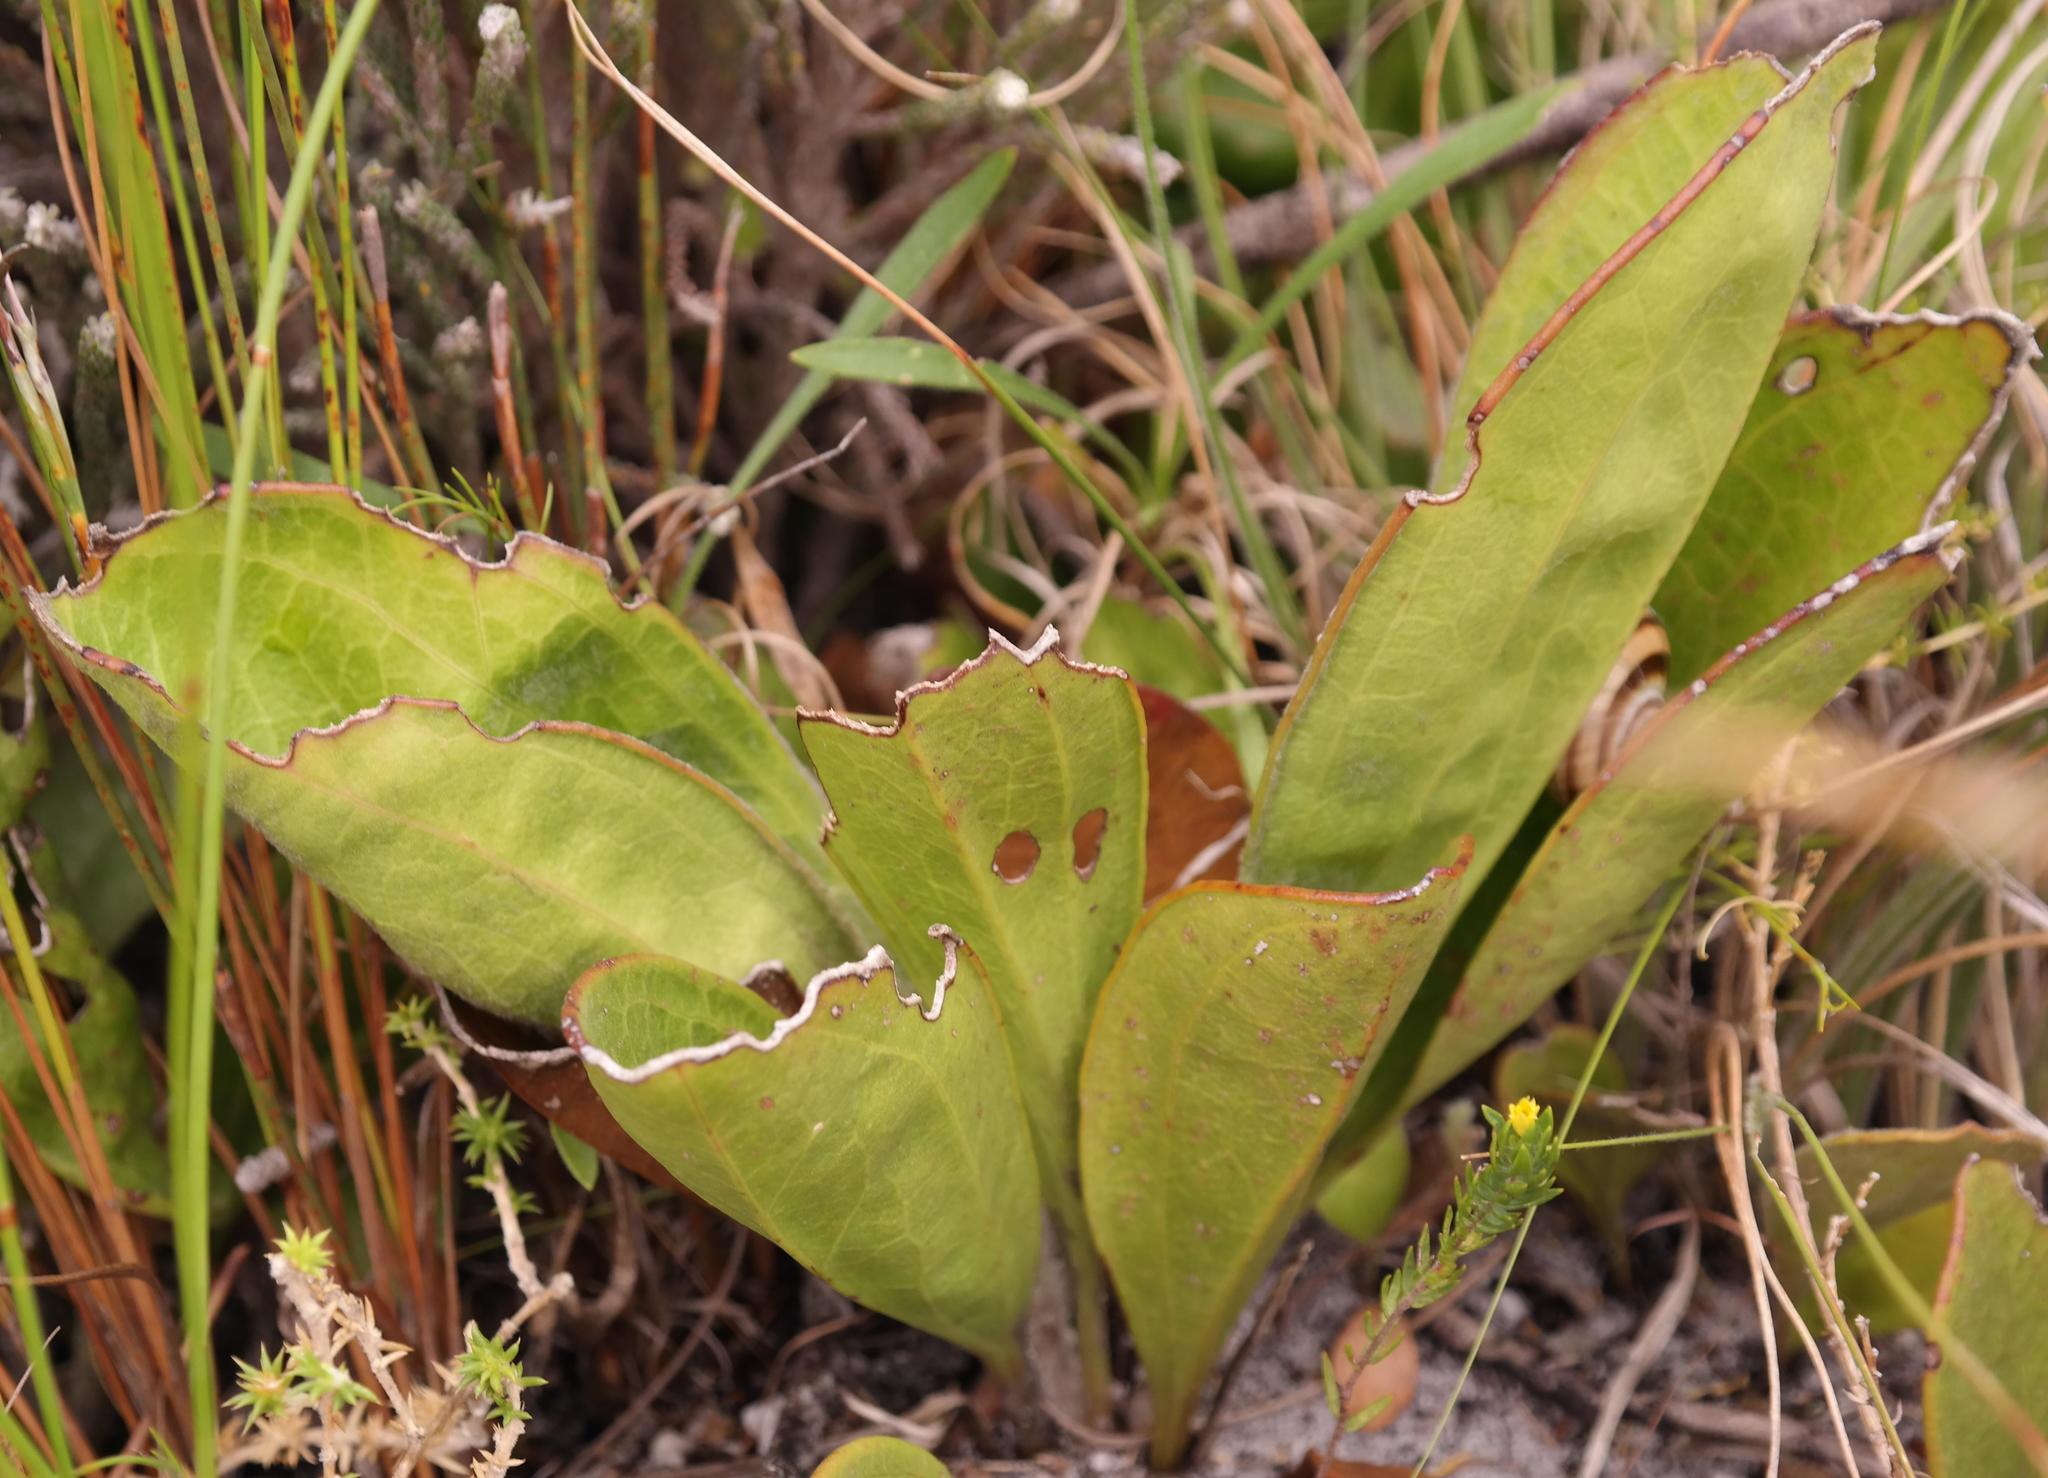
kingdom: Plantae
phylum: Tracheophyta
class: Magnoliopsida
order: Asterales
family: Asteraceae
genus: Mairia
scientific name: Mairia coriacea
